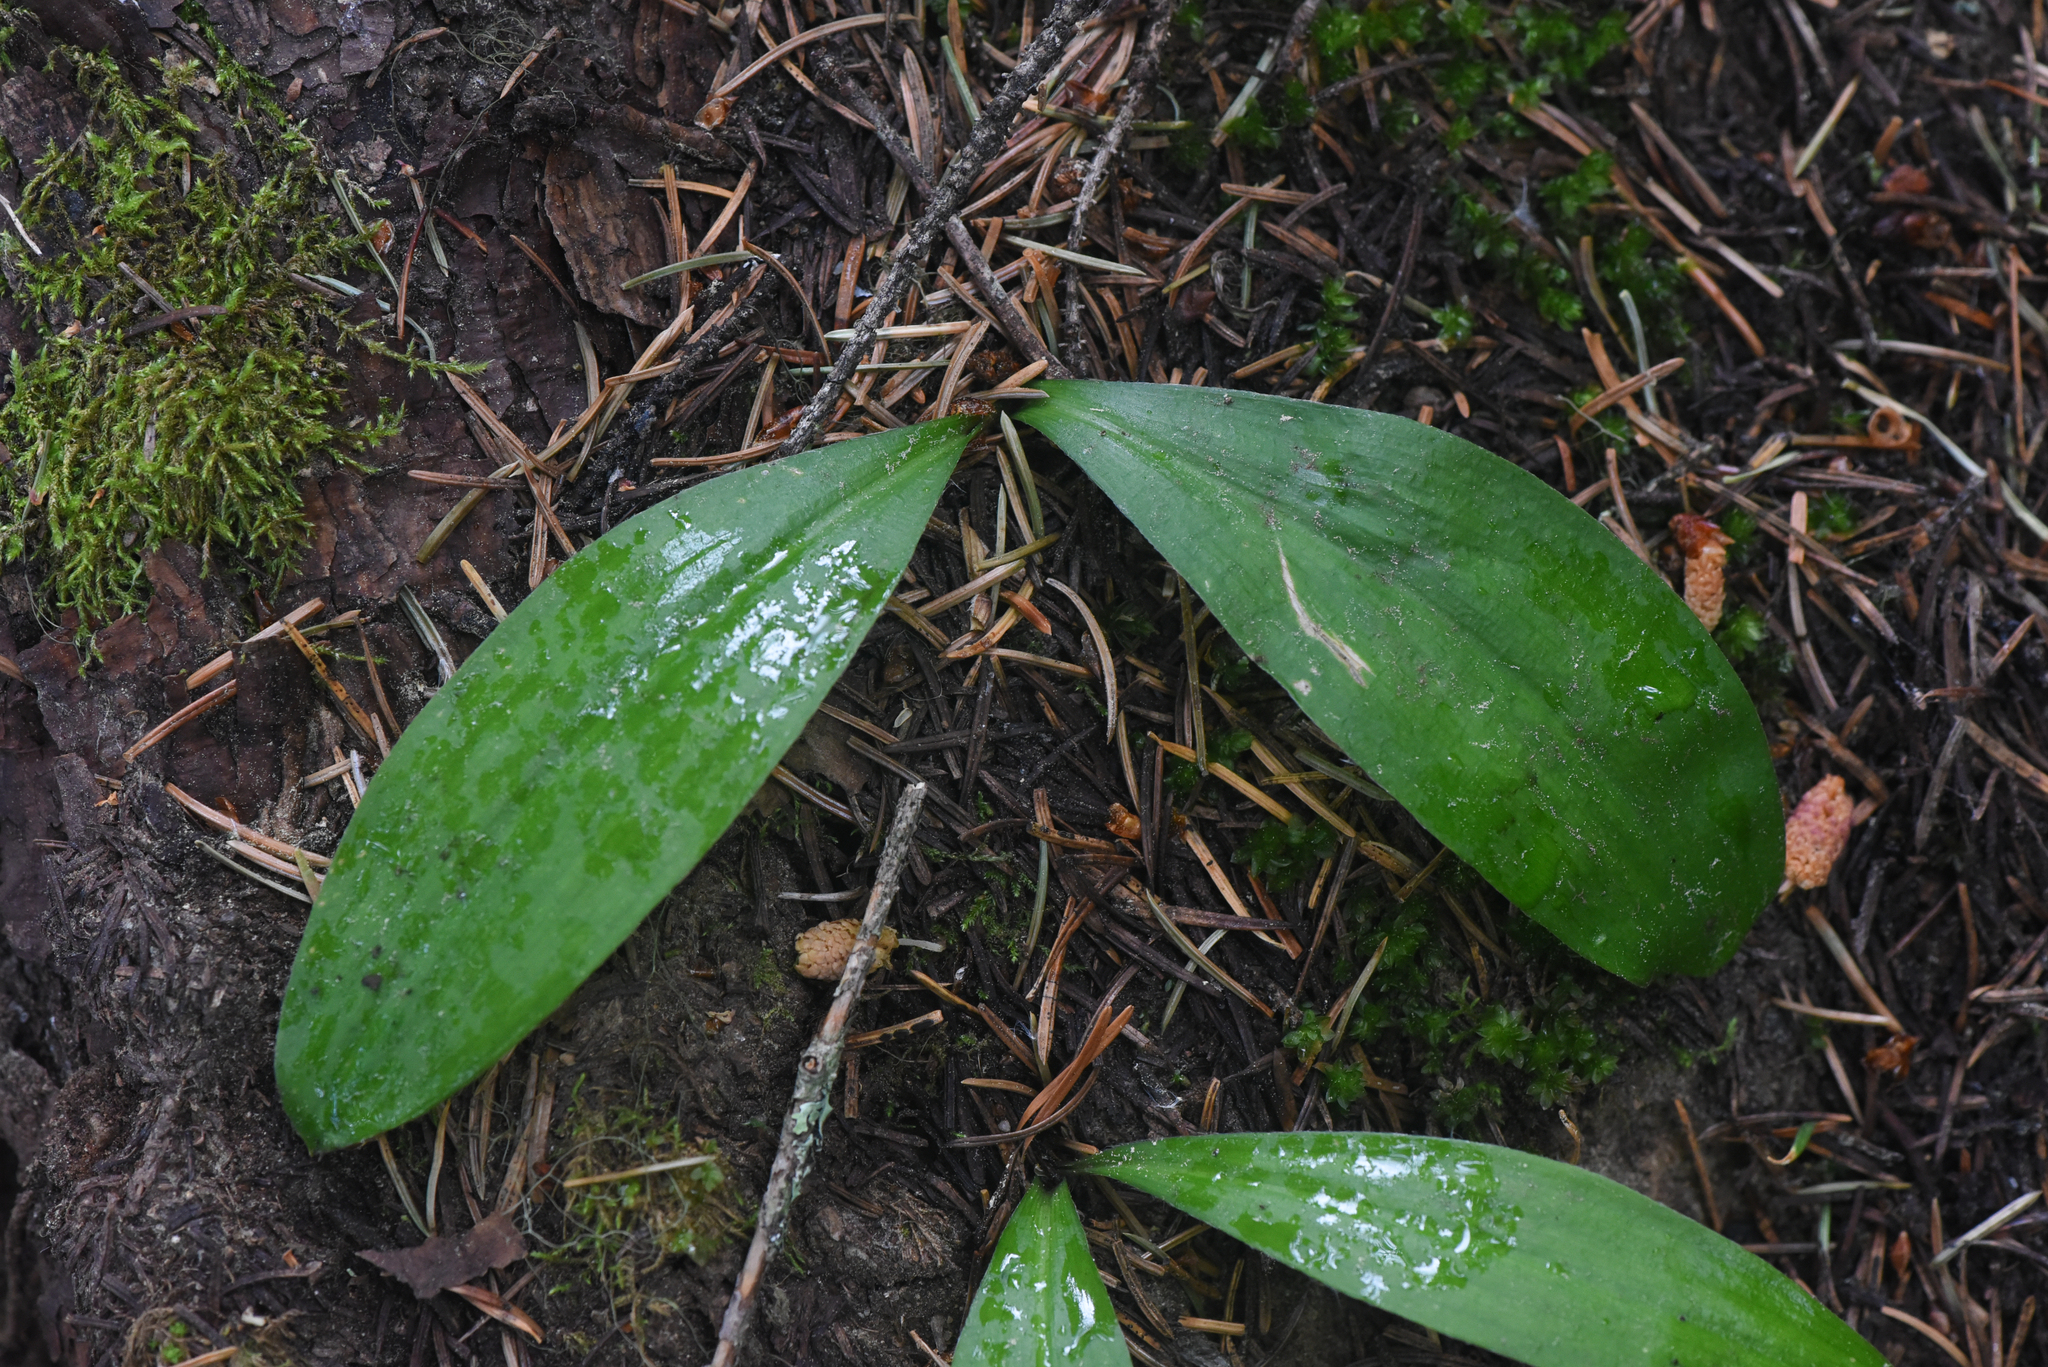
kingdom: Plantae
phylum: Tracheophyta
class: Liliopsida
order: Liliales
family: Liliaceae
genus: Clintonia
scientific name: Clintonia uniflora
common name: Queen's cup
